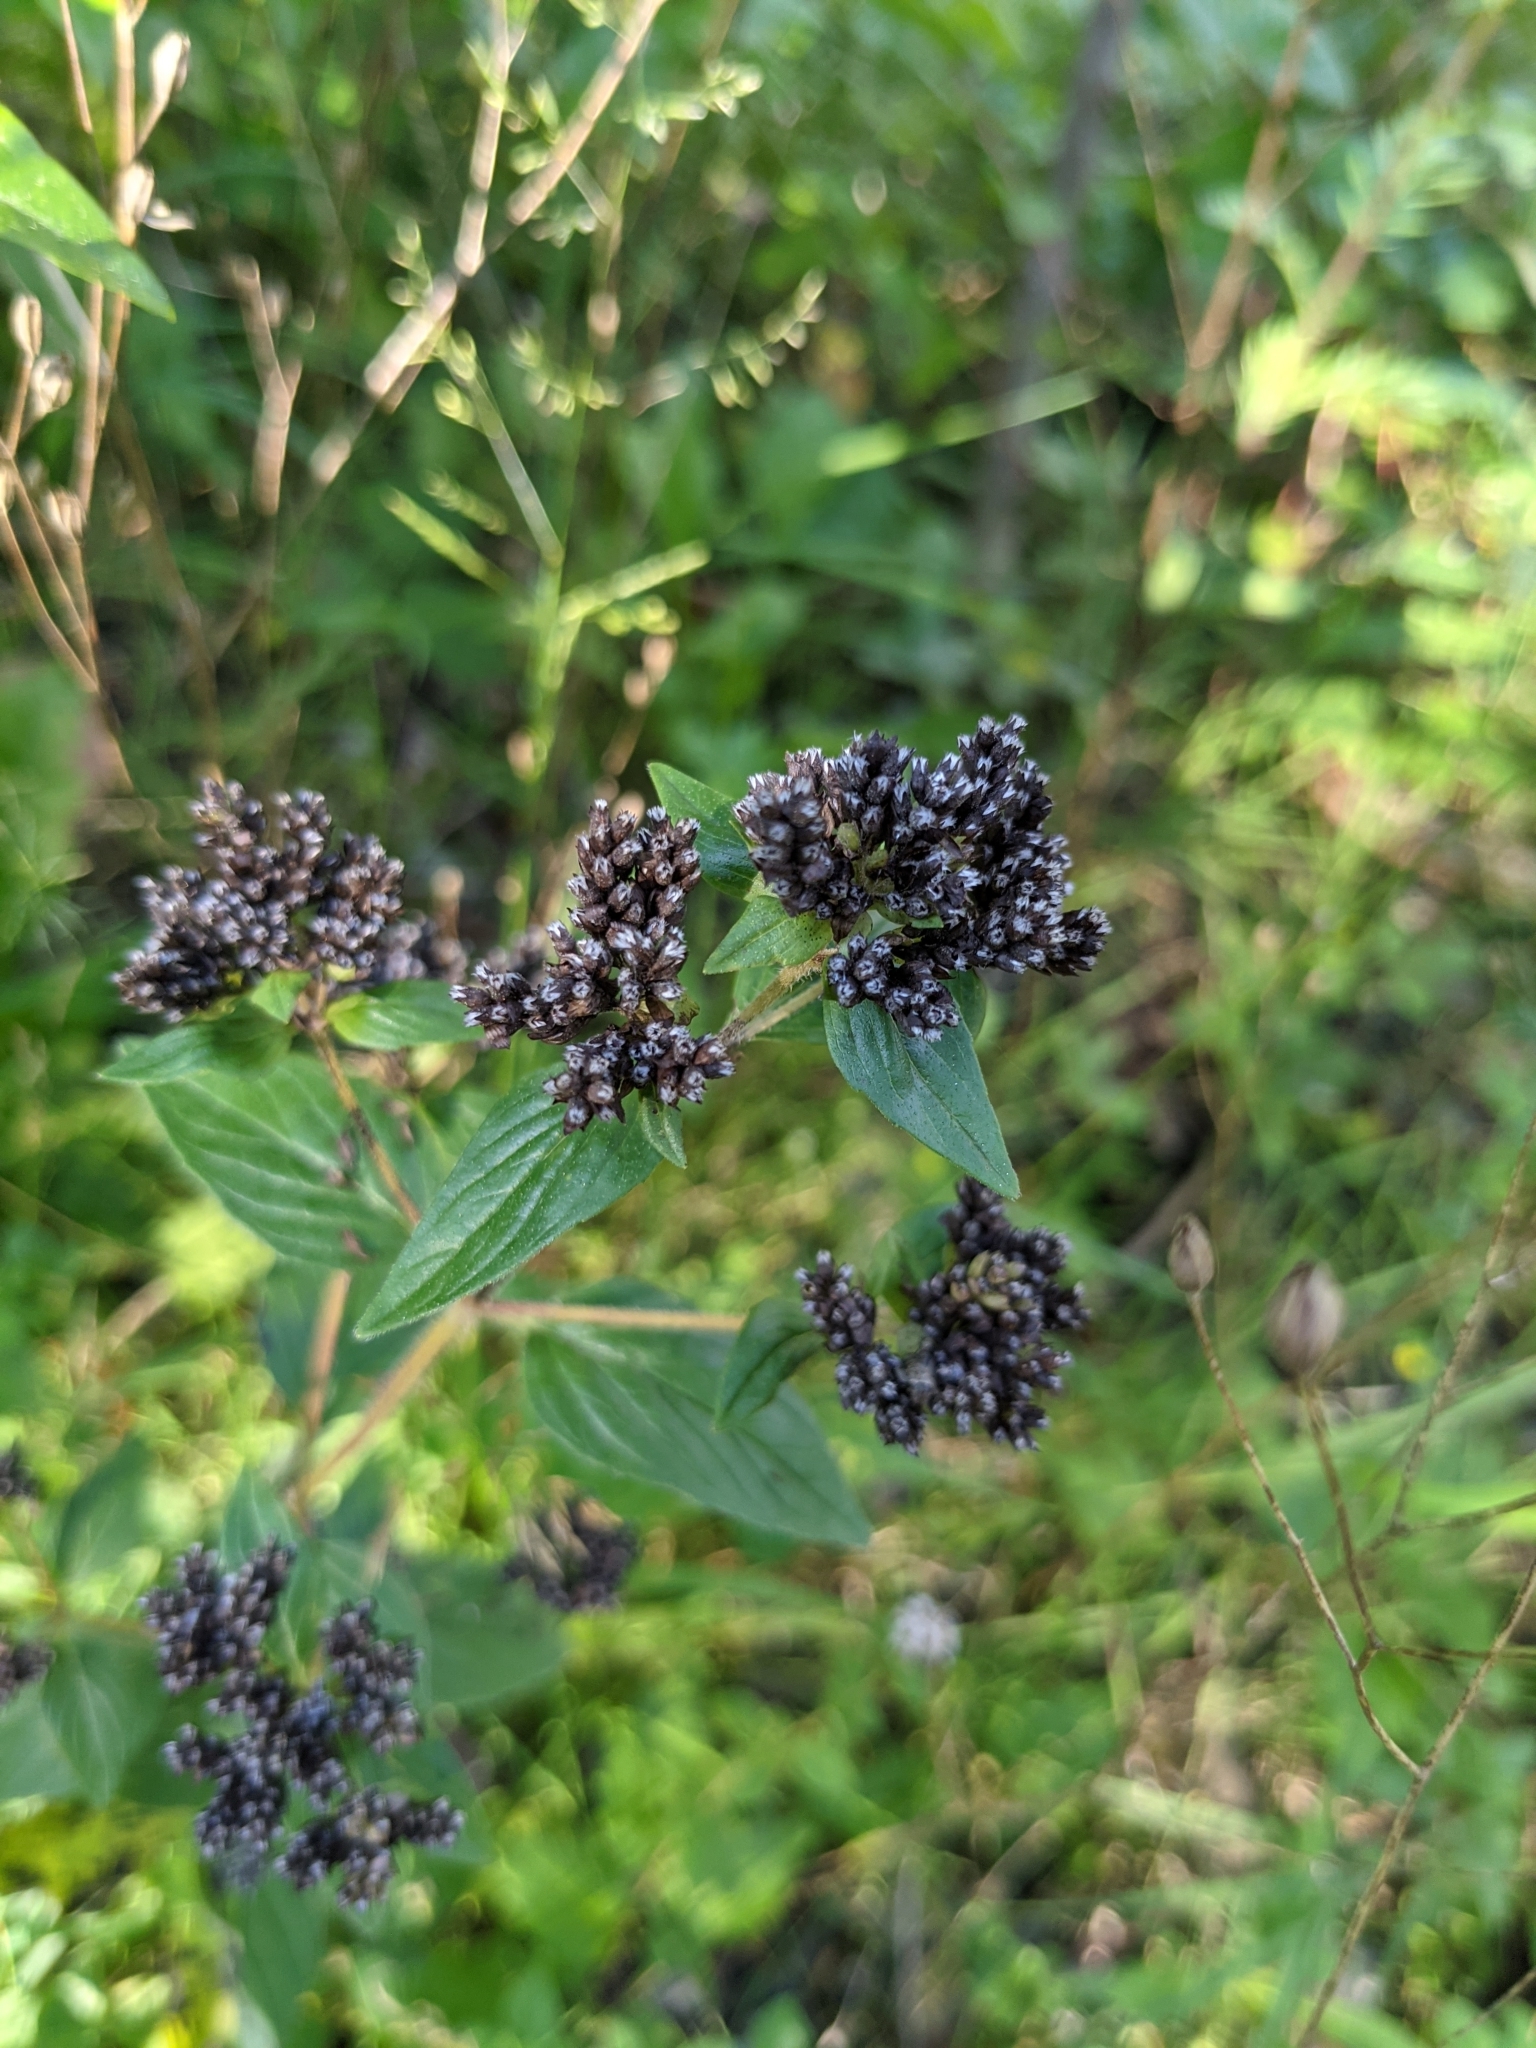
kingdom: Plantae
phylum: Tracheophyta
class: Magnoliopsida
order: Lamiales
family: Lamiaceae
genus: Origanum
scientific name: Origanum vulgare
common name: Wild marjoram
